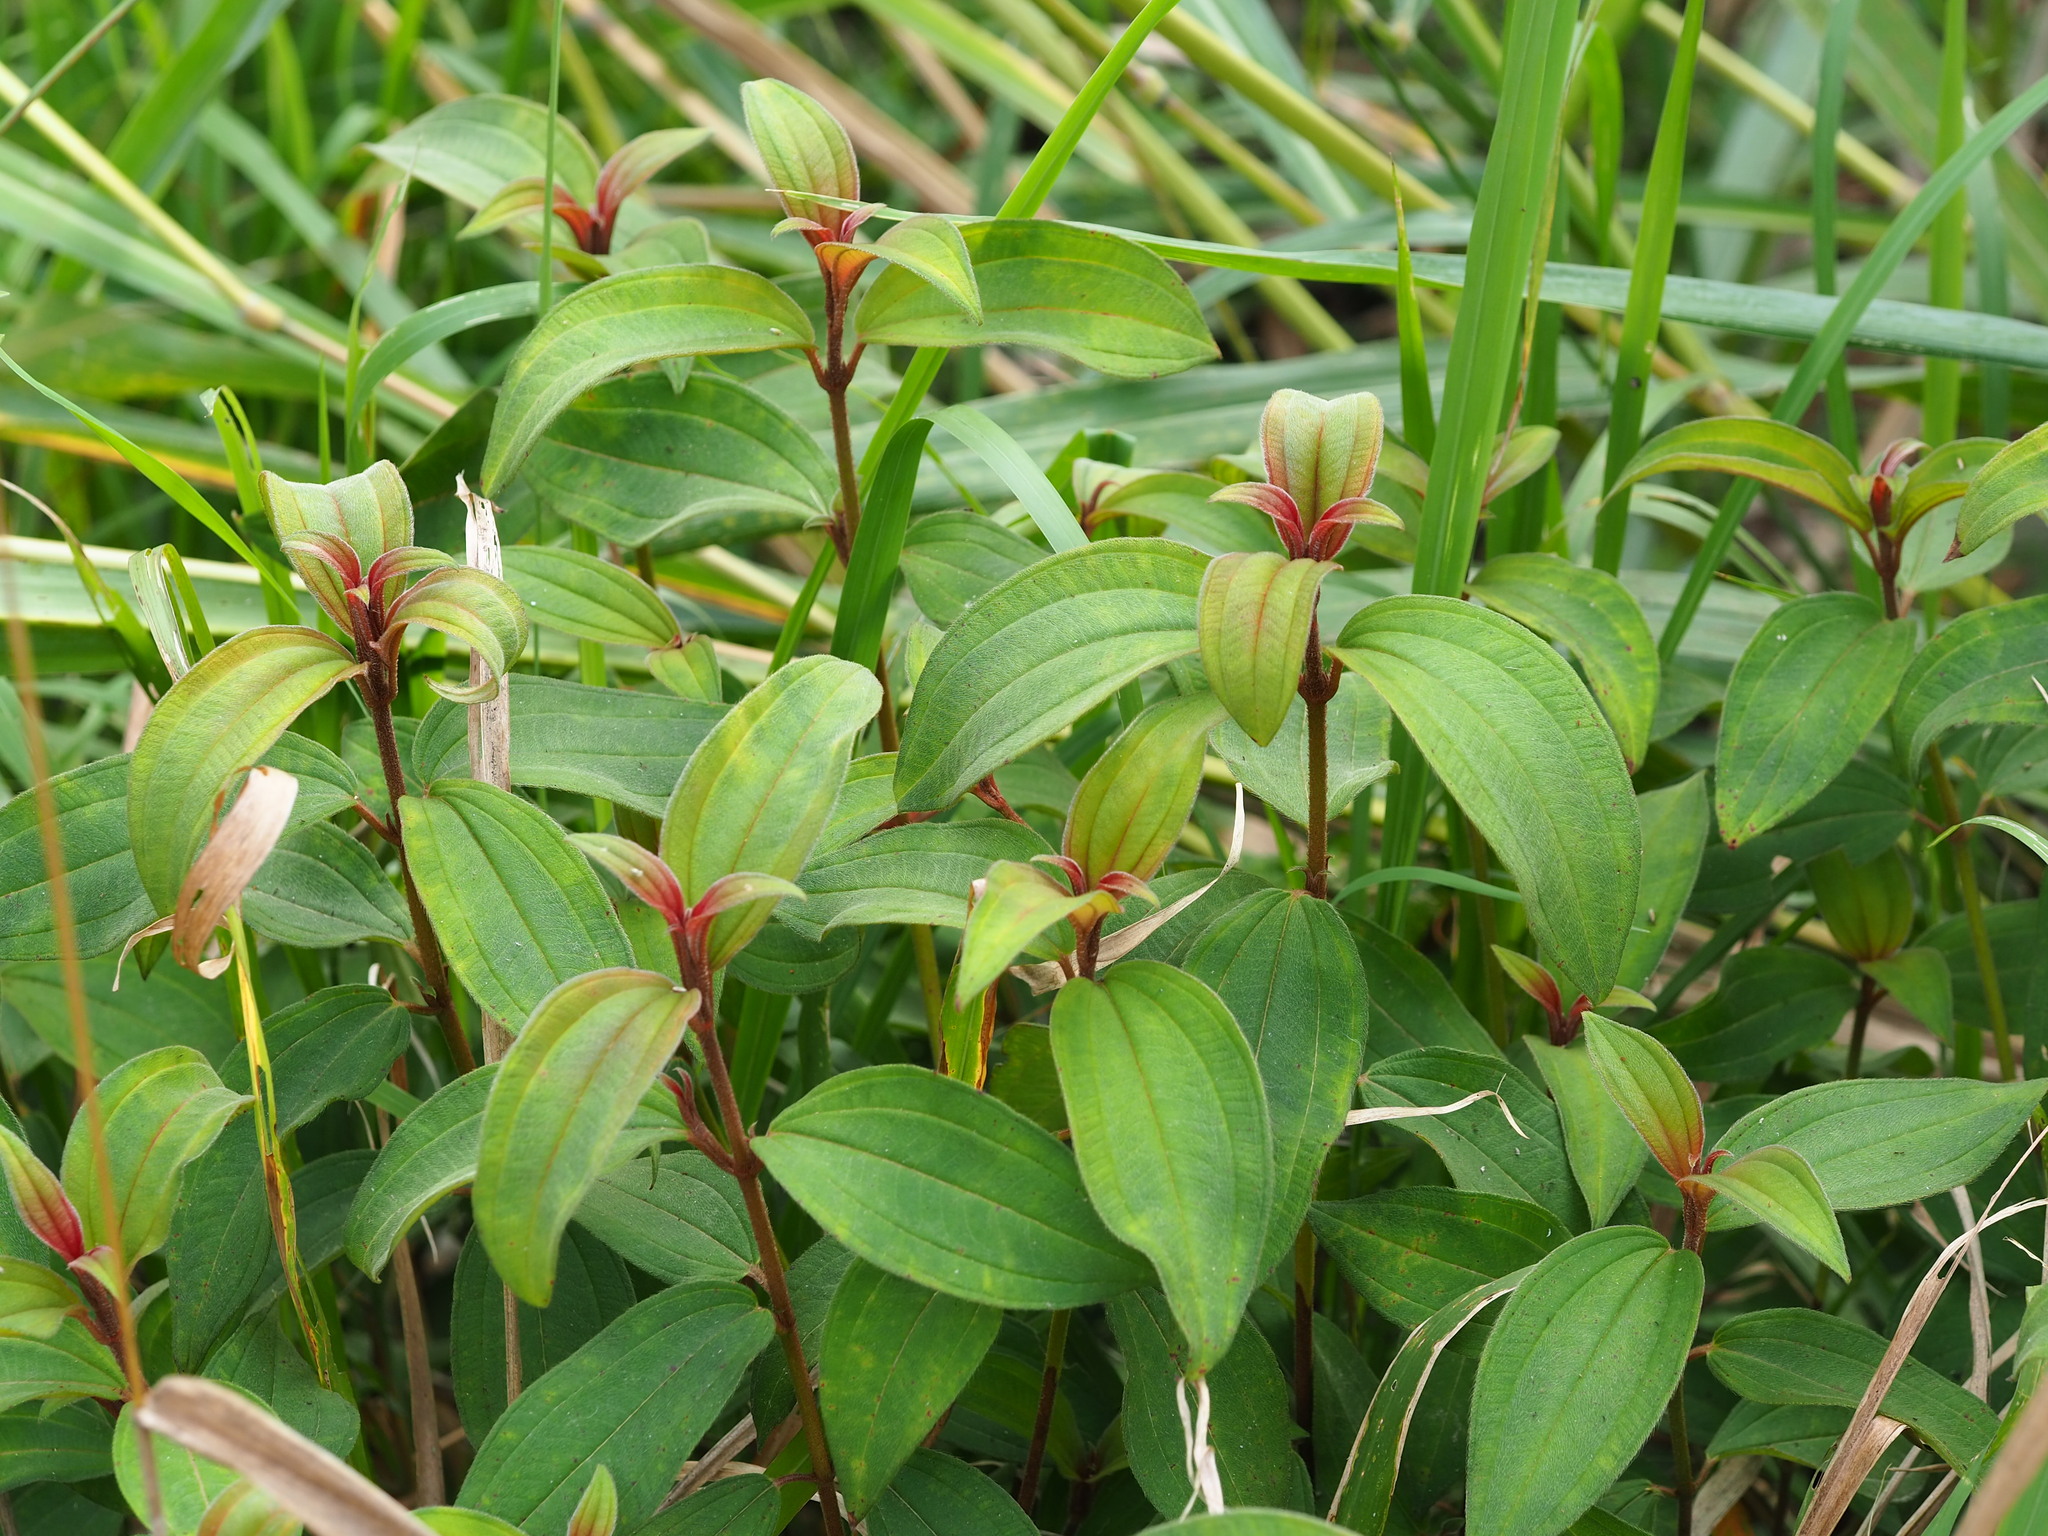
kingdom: Plantae
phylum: Tracheophyta
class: Magnoliopsida
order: Myrtales
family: Melastomataceae
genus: Melastoma
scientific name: Melastoma malabathricum
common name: Indian-rhododendron
